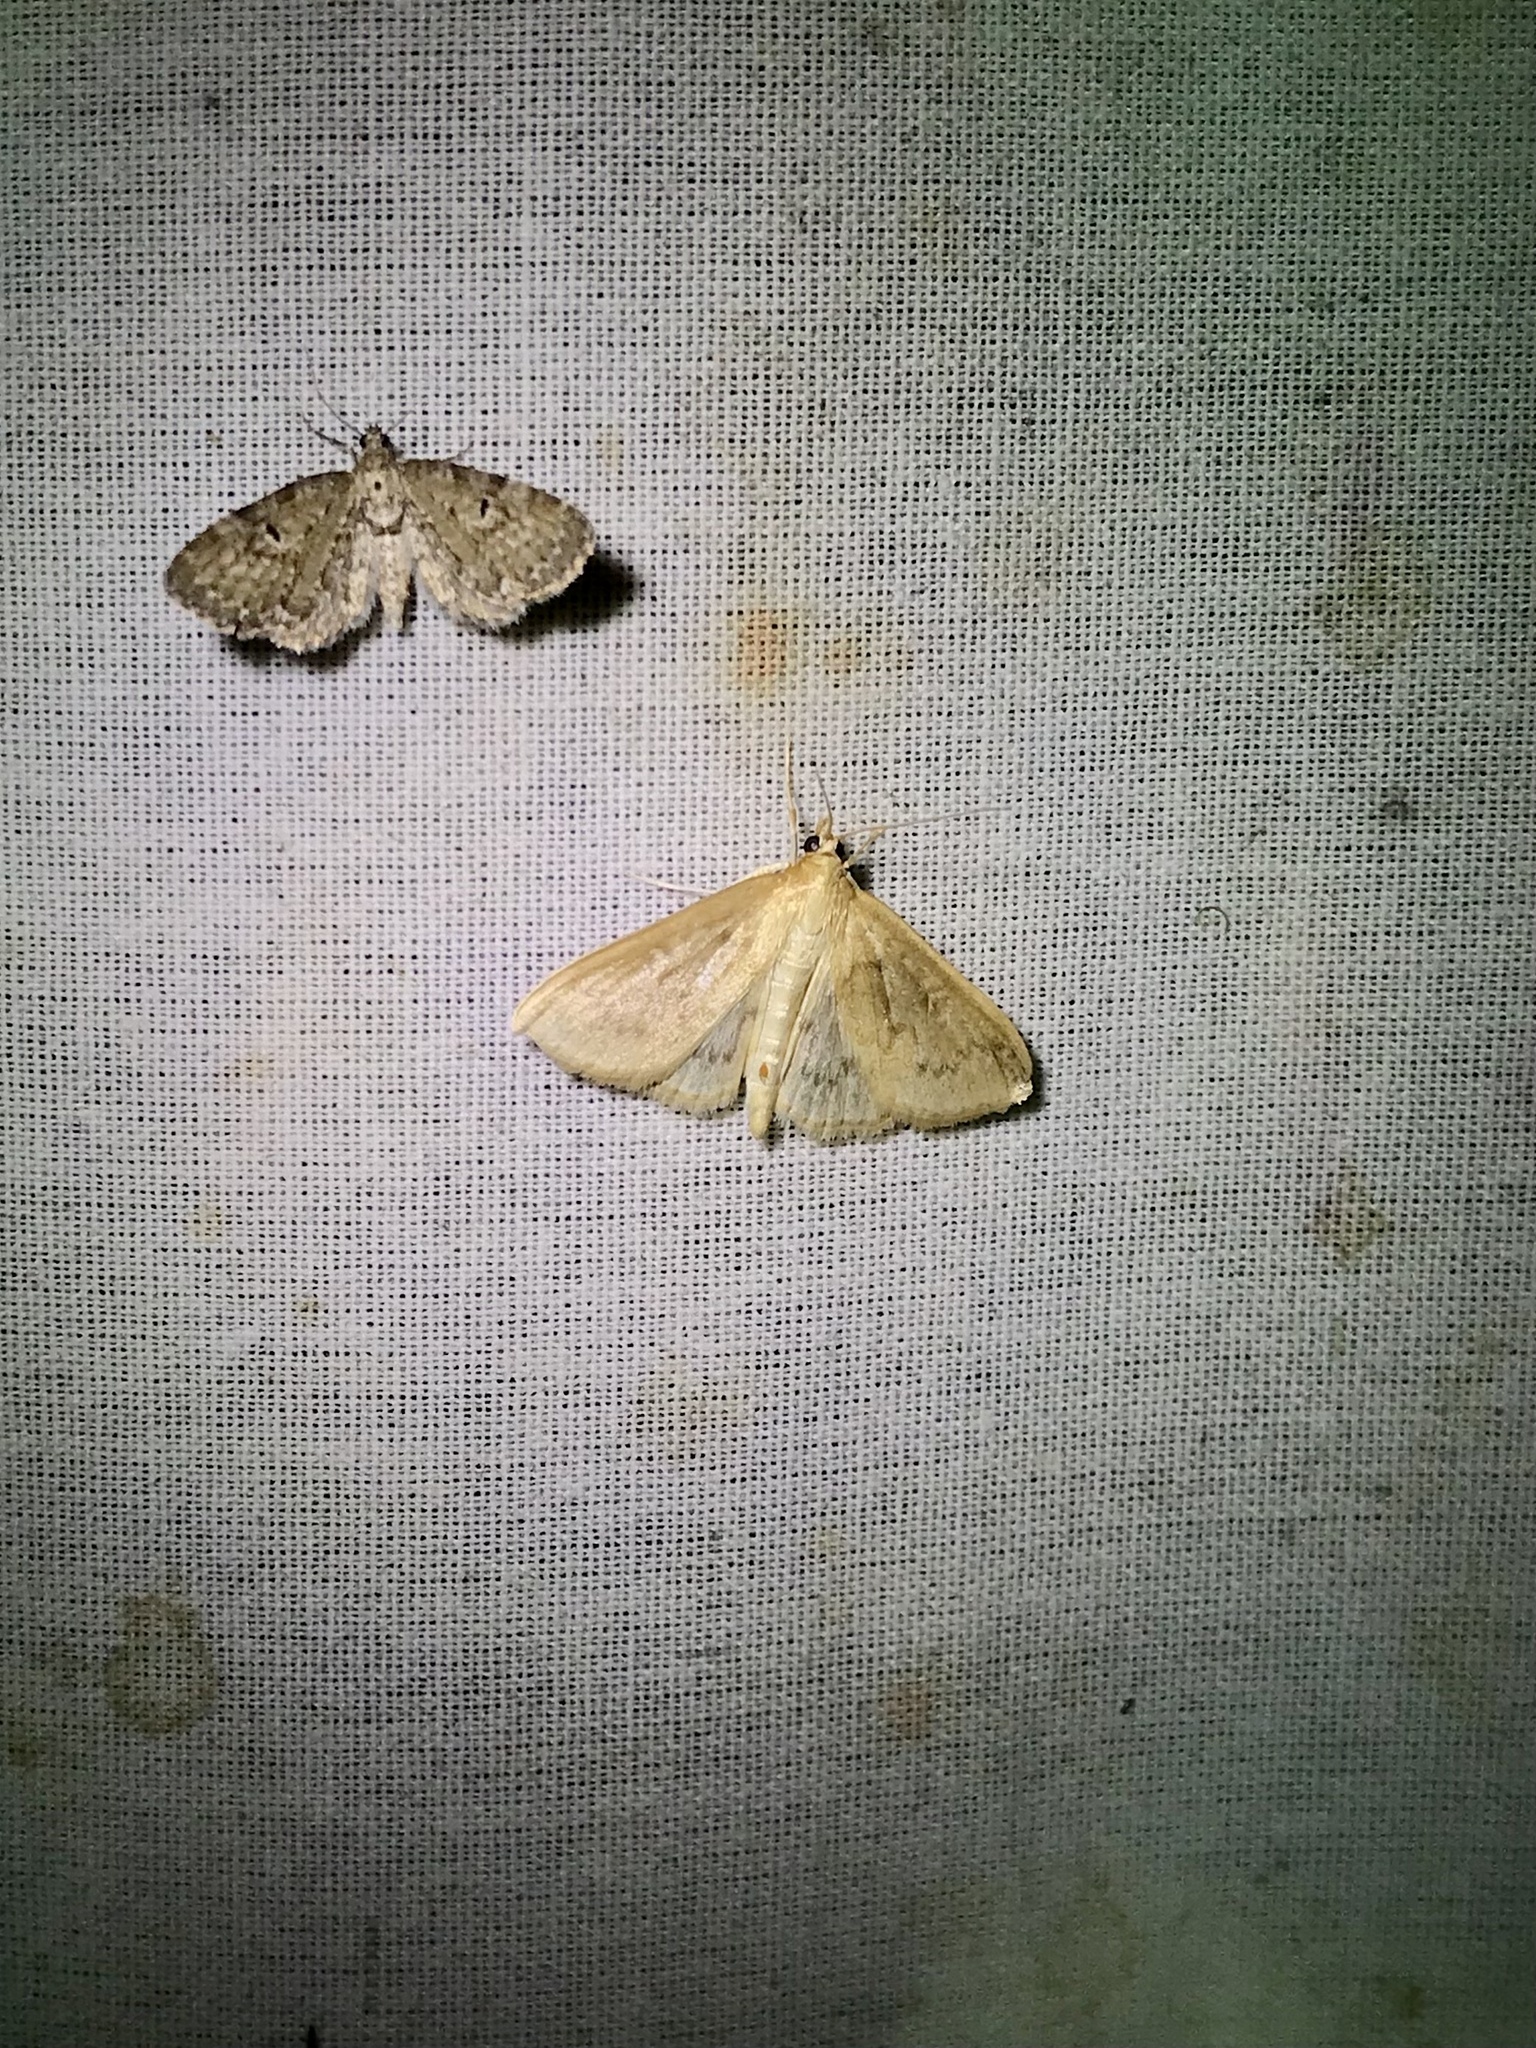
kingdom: Animalia
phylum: Arthropoda
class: Insecta
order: Lepidoptera
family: Crambidae
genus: Anania
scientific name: Anania Framinghamia helvalis
